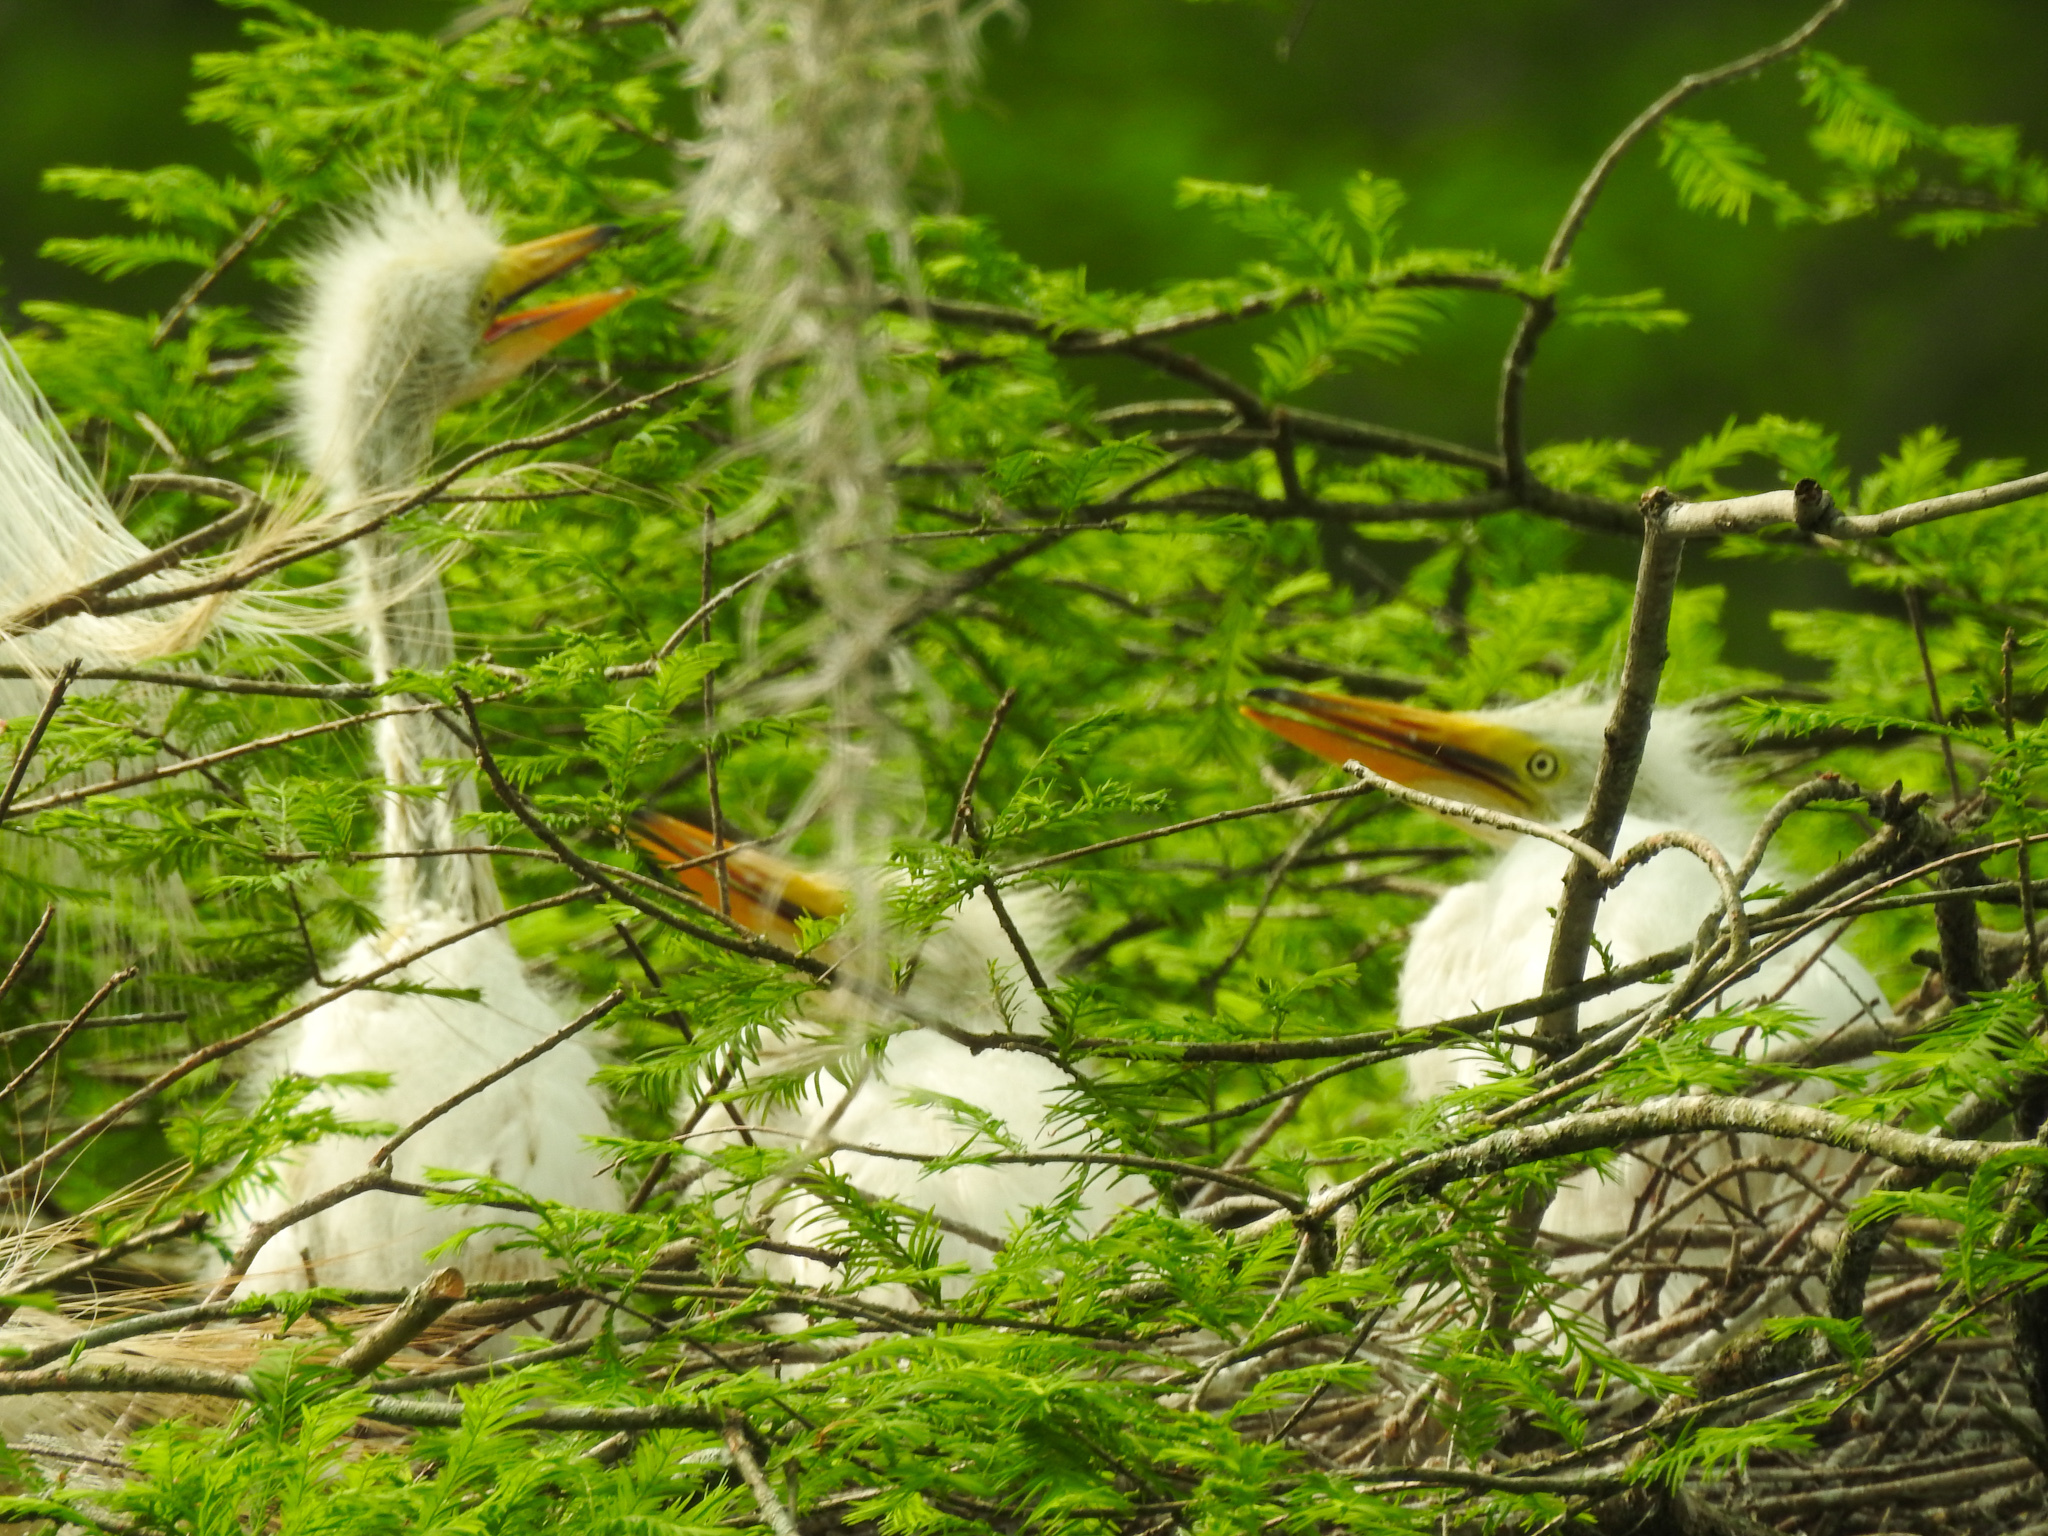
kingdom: Animalia
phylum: Chordata
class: Aves
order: Pelecaniformes
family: Ardeidae
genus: Ardea
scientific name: Ardea alba
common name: Great egret
